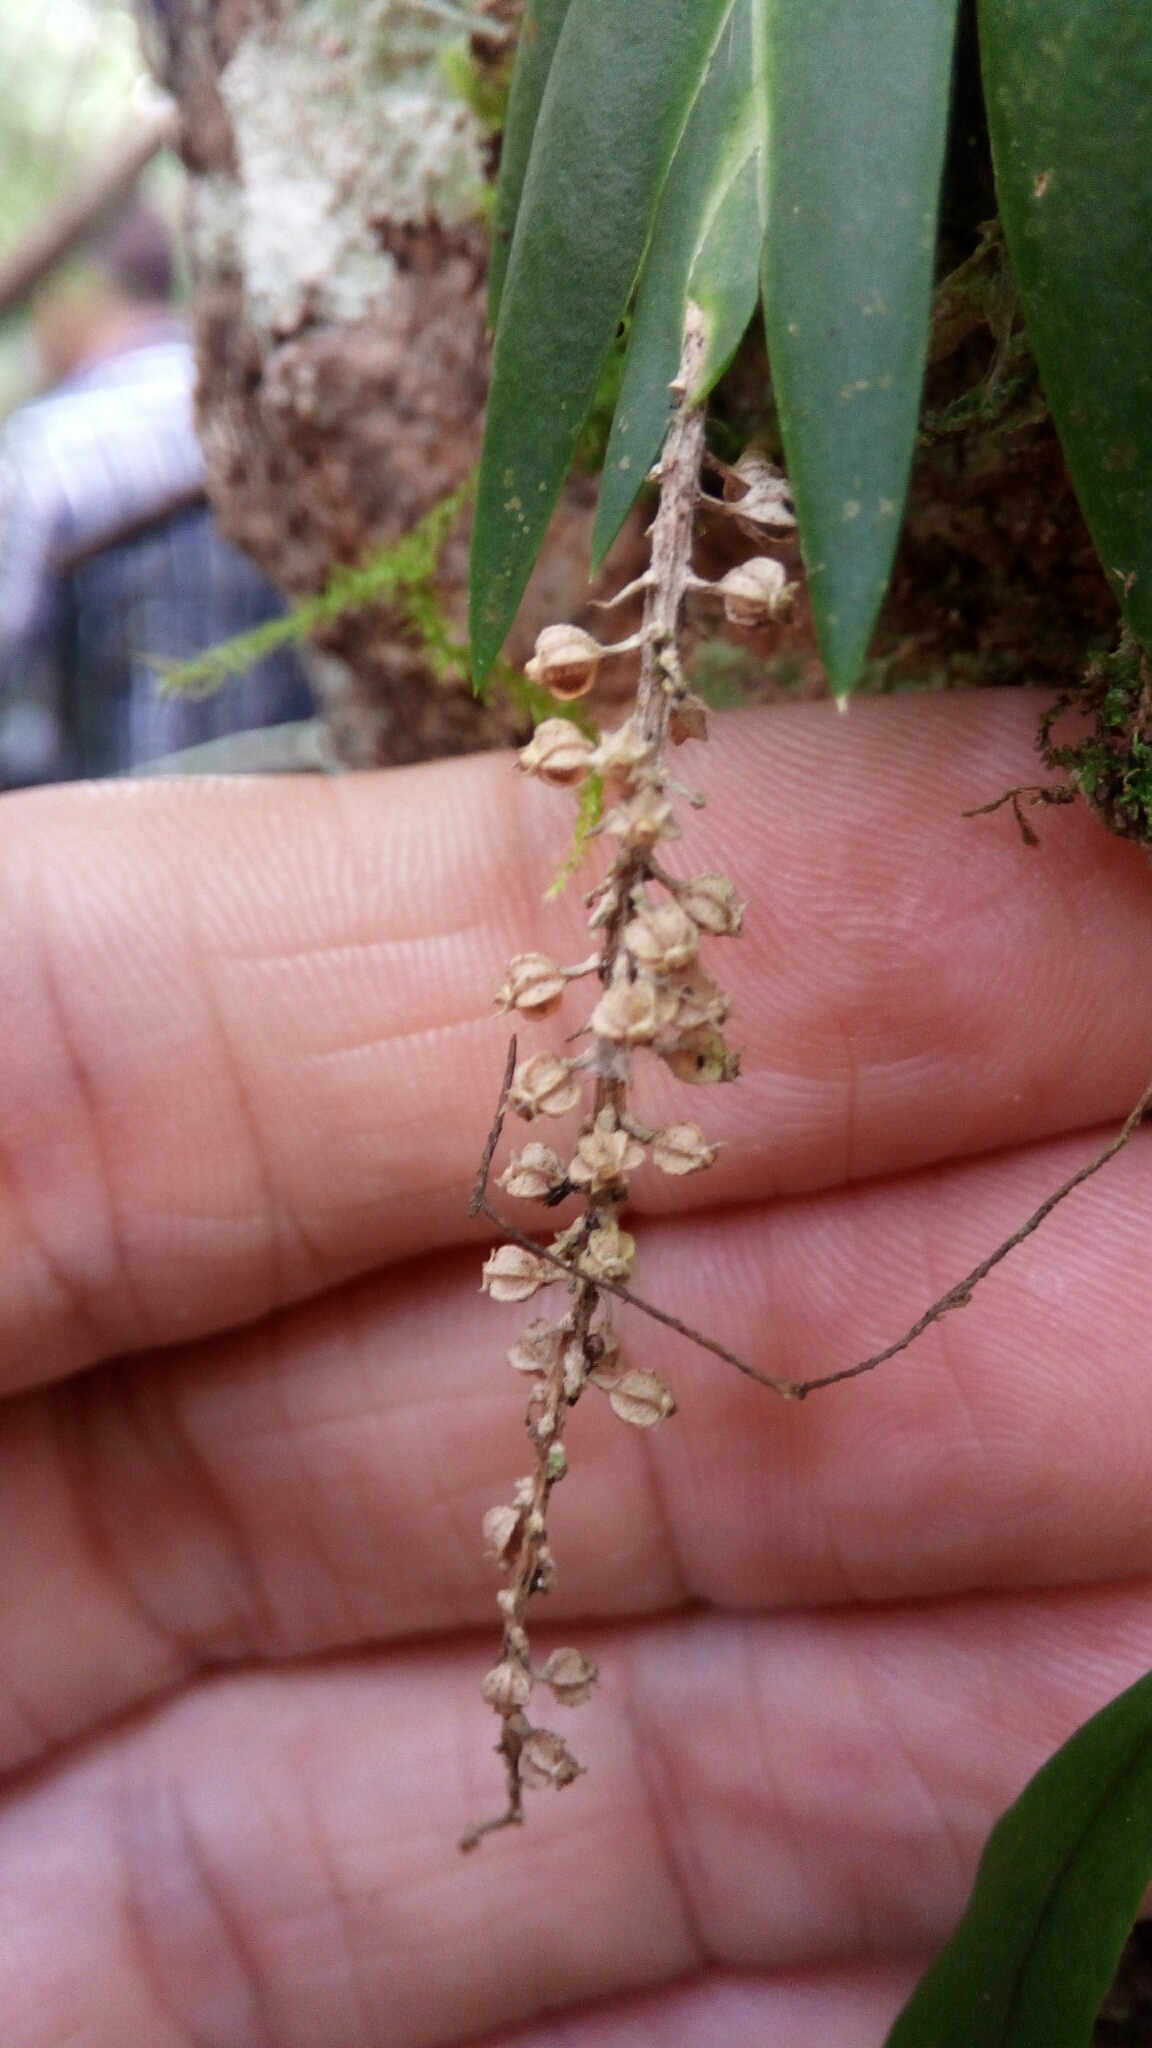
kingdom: Plantae
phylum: Tracheophyta
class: Liliopsida
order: Asparagales
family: Orchidaceae
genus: Oberonia
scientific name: Oberonia disticha
